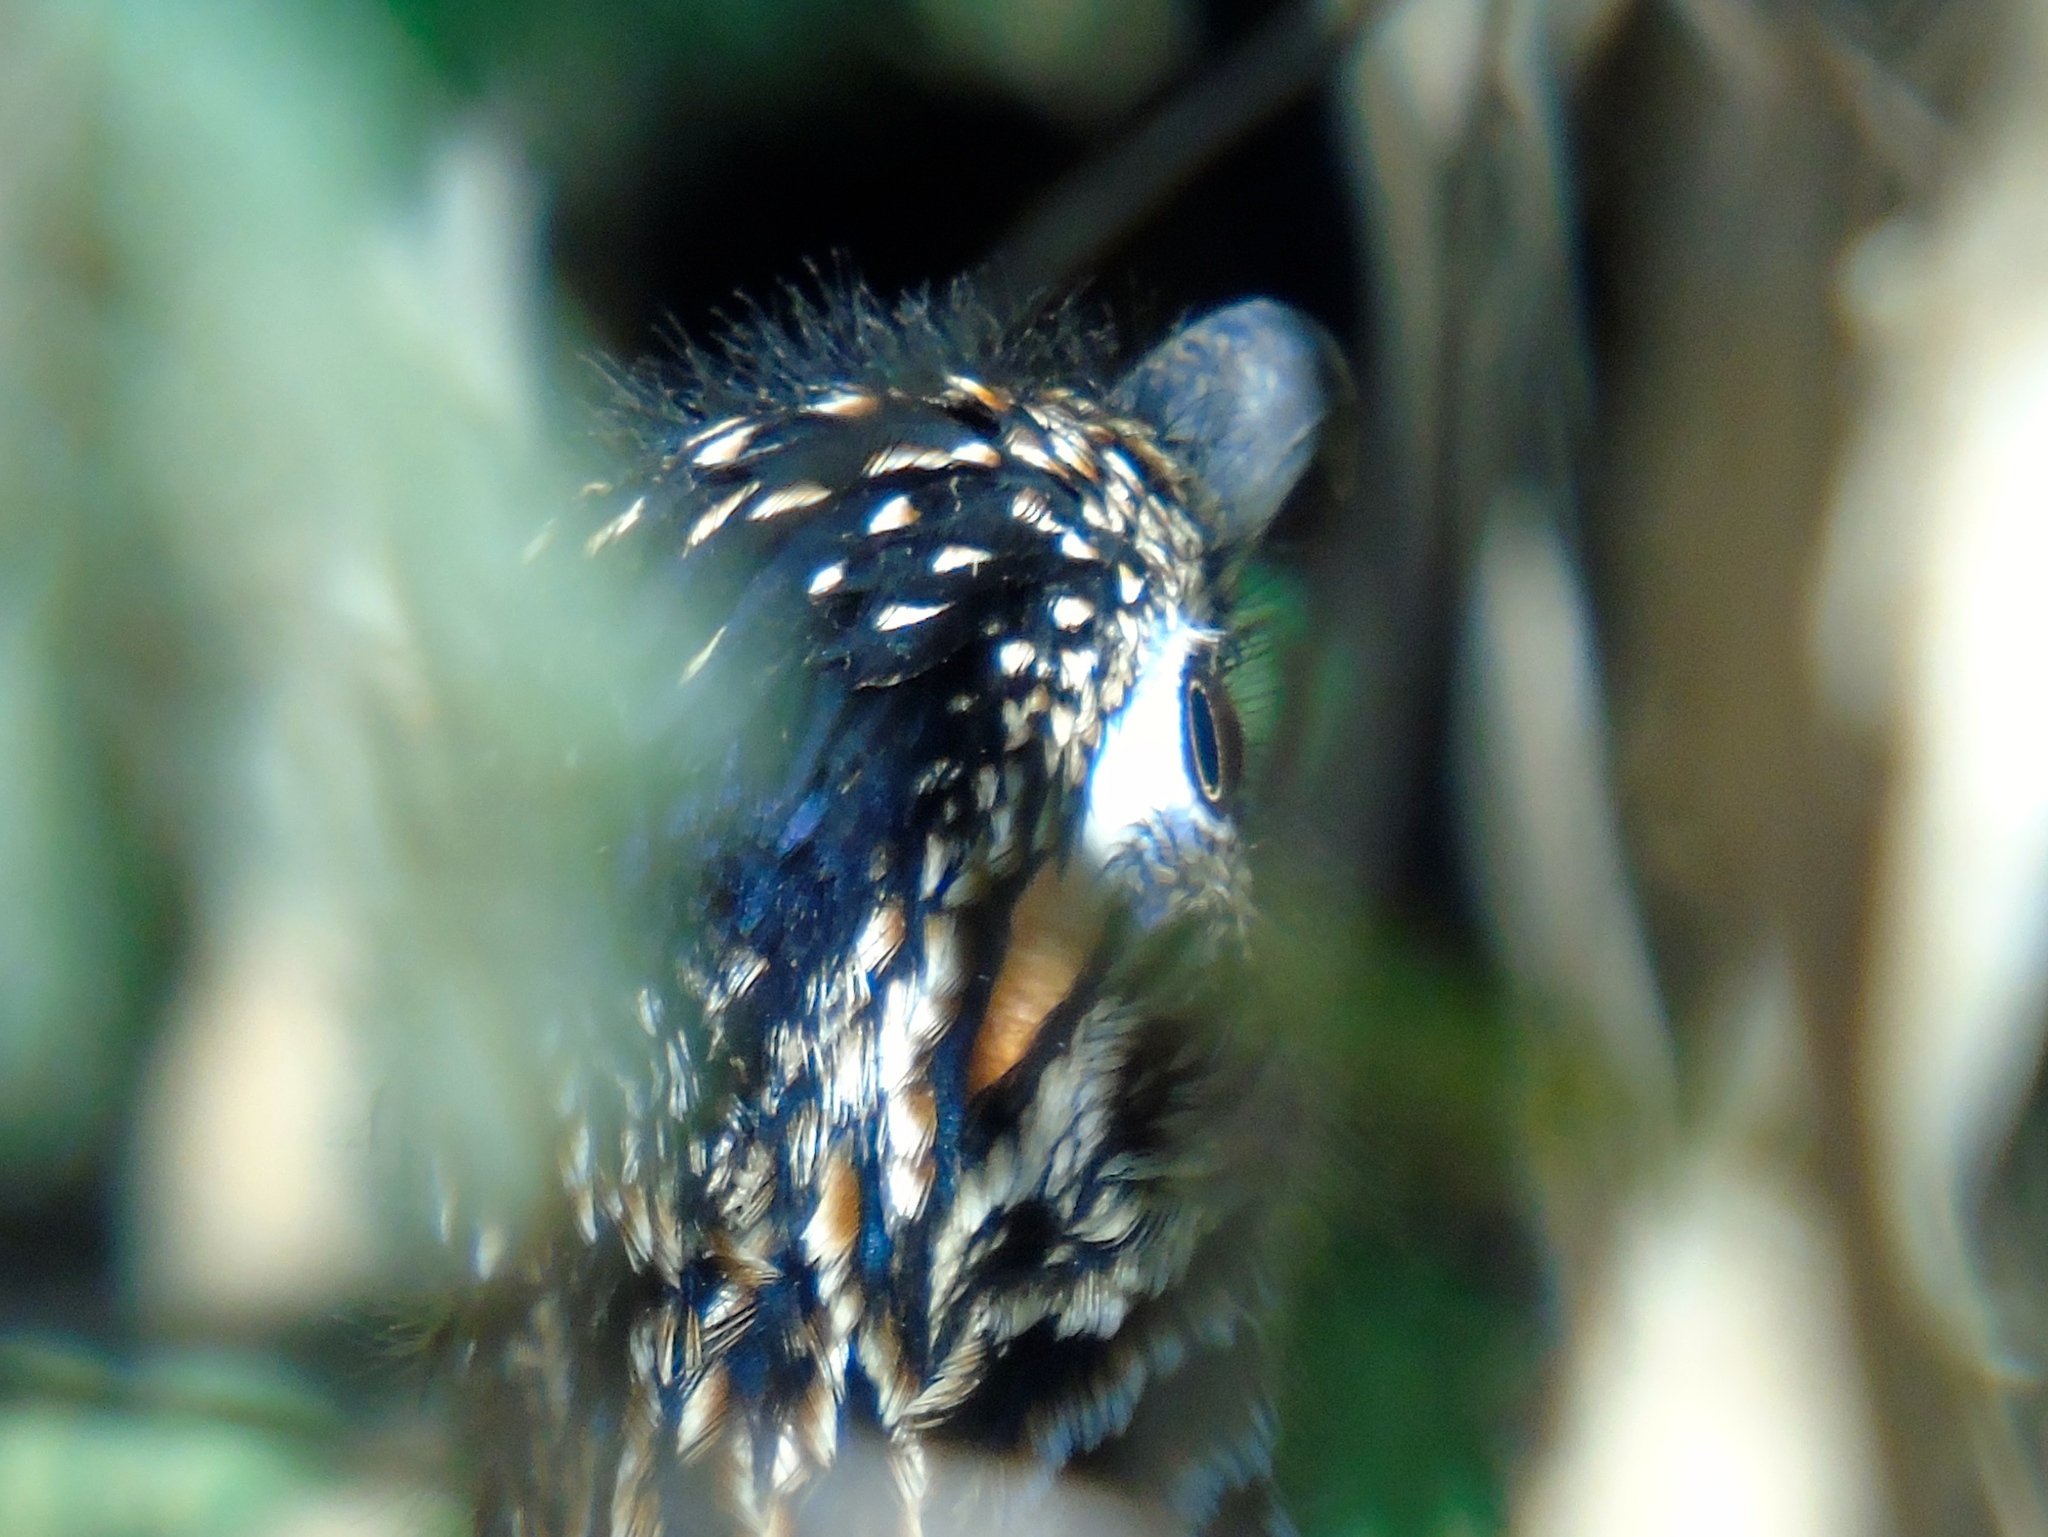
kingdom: Animalia
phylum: Chordata
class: Aves
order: Cuculiformes
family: Cuculidae
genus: Geococcyx
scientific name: Geococcyx californianus
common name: Greater roadrunner
